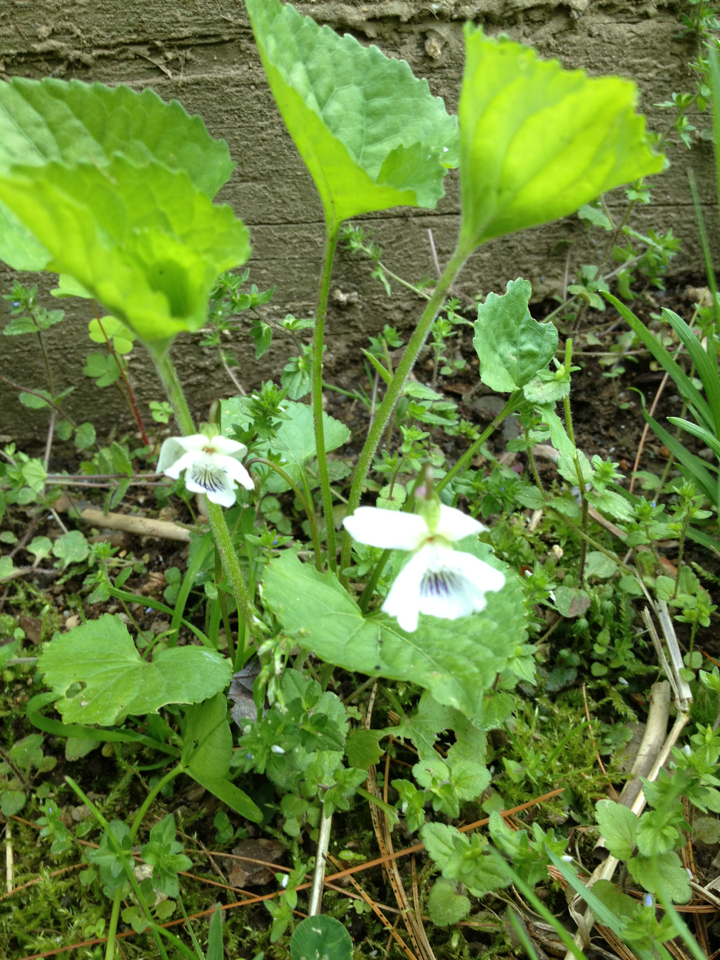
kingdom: Plantae
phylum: Tracheophyta
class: Magnoliopsida
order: Malpighiales
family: Violaceae
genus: Viola
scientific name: Viola
